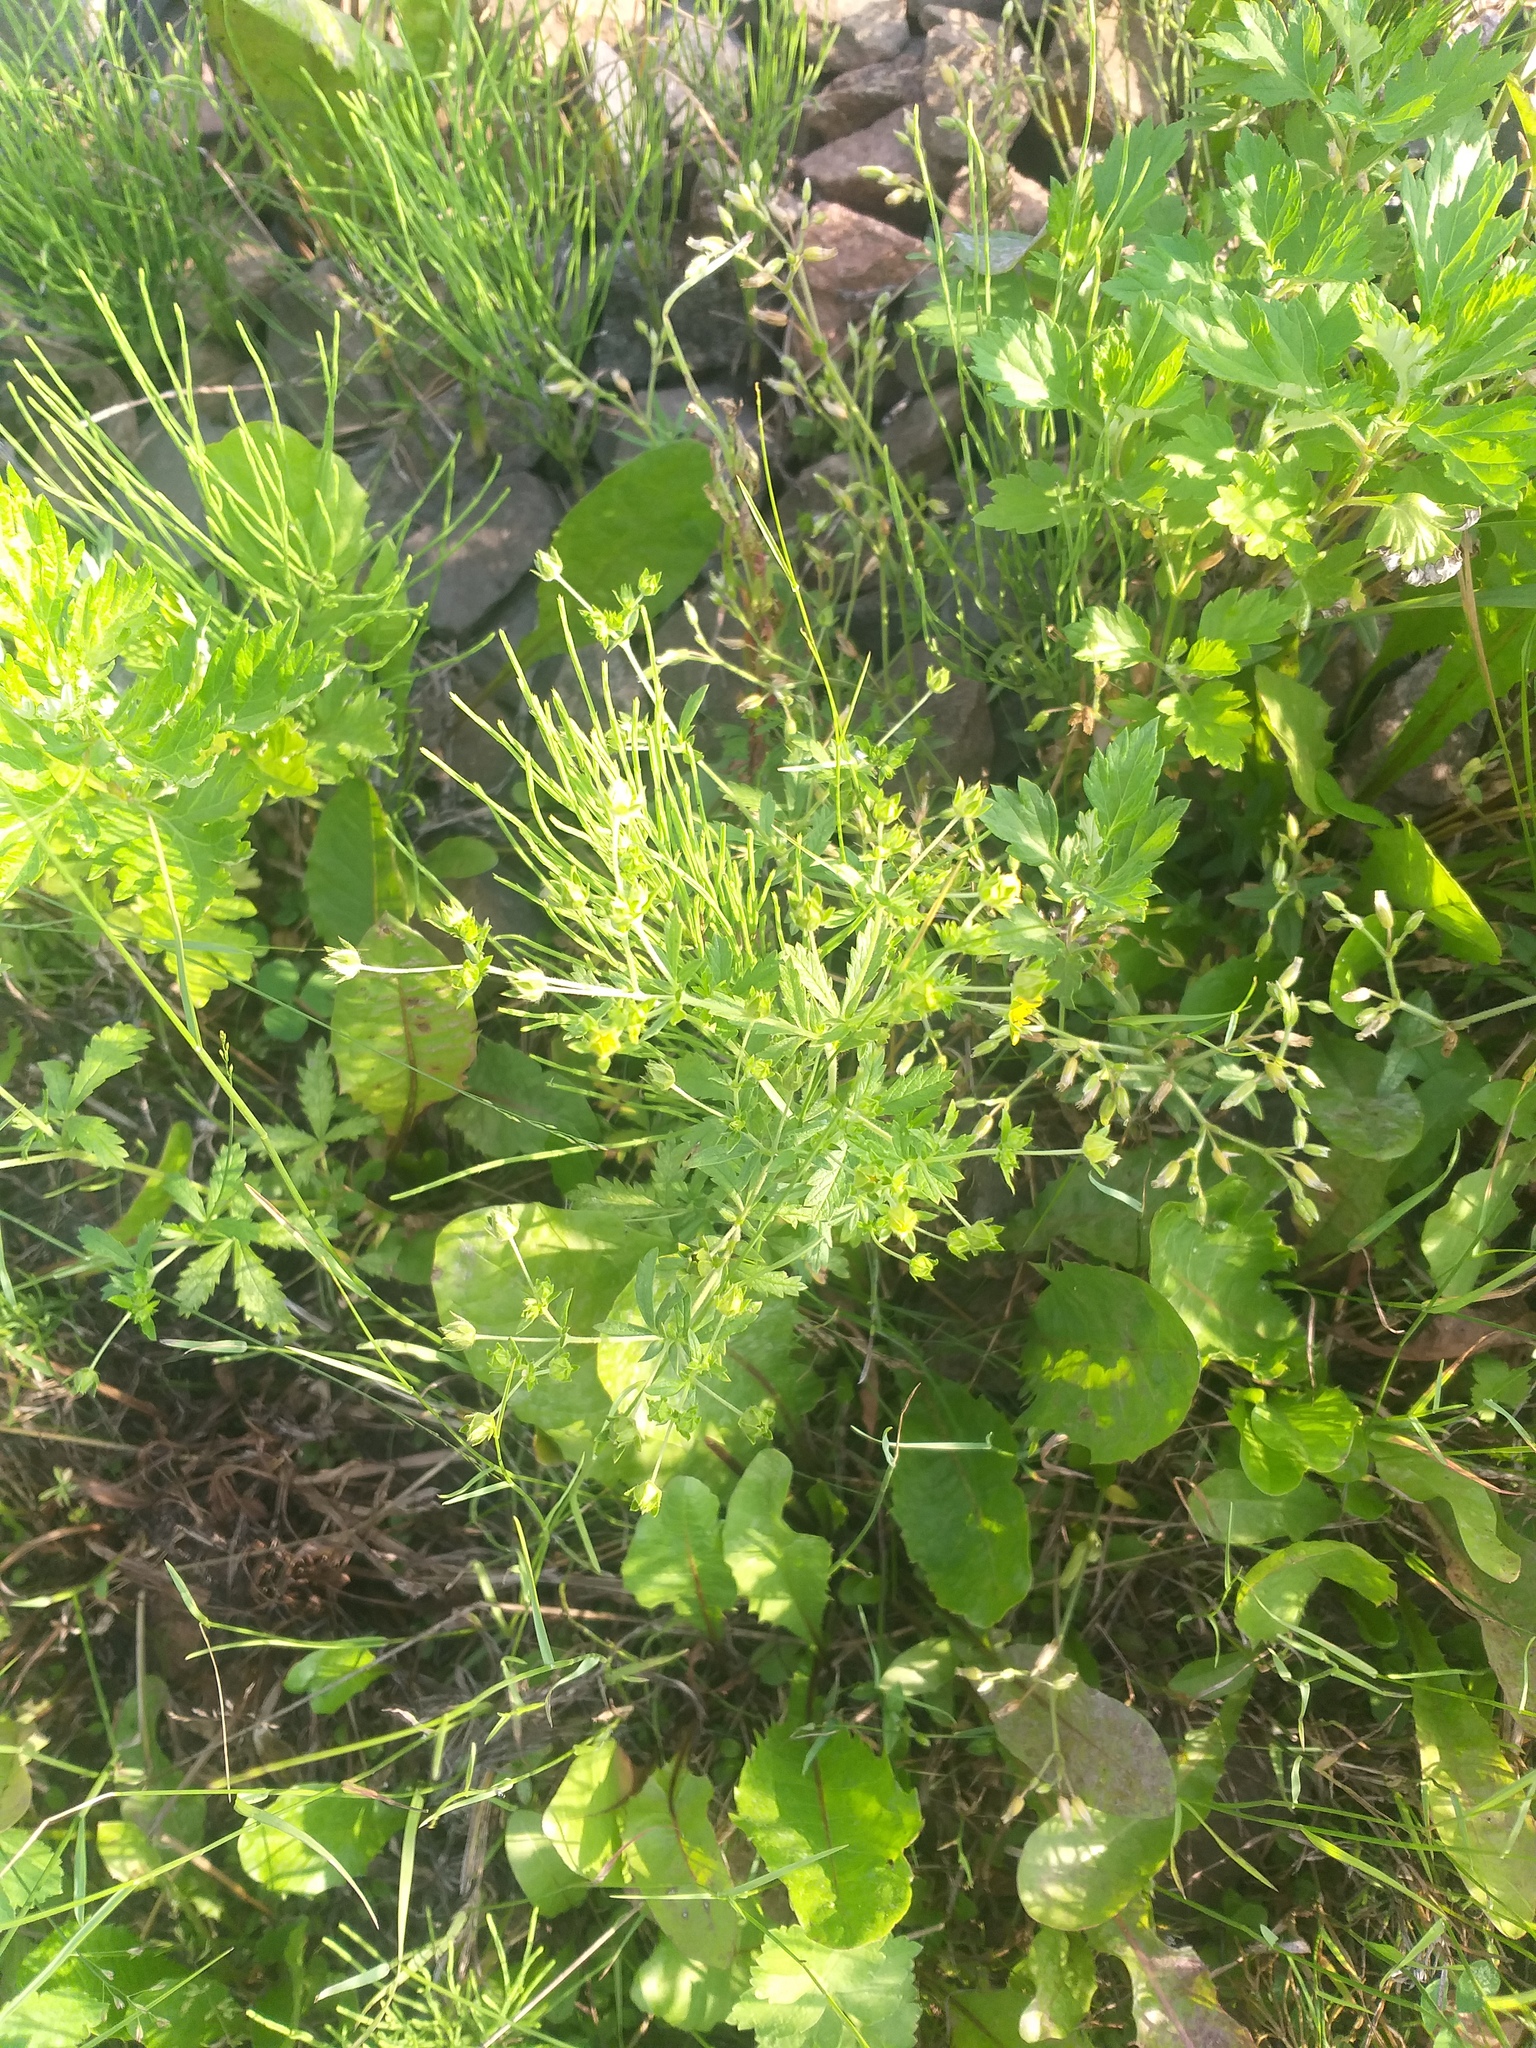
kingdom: Plantae
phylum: Tracheophyta
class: Magnoliopsida
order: Rosales
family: Rosaceae
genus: Potentilla
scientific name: Potentilla norvegica
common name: Ternate-leaved cinquefoil
